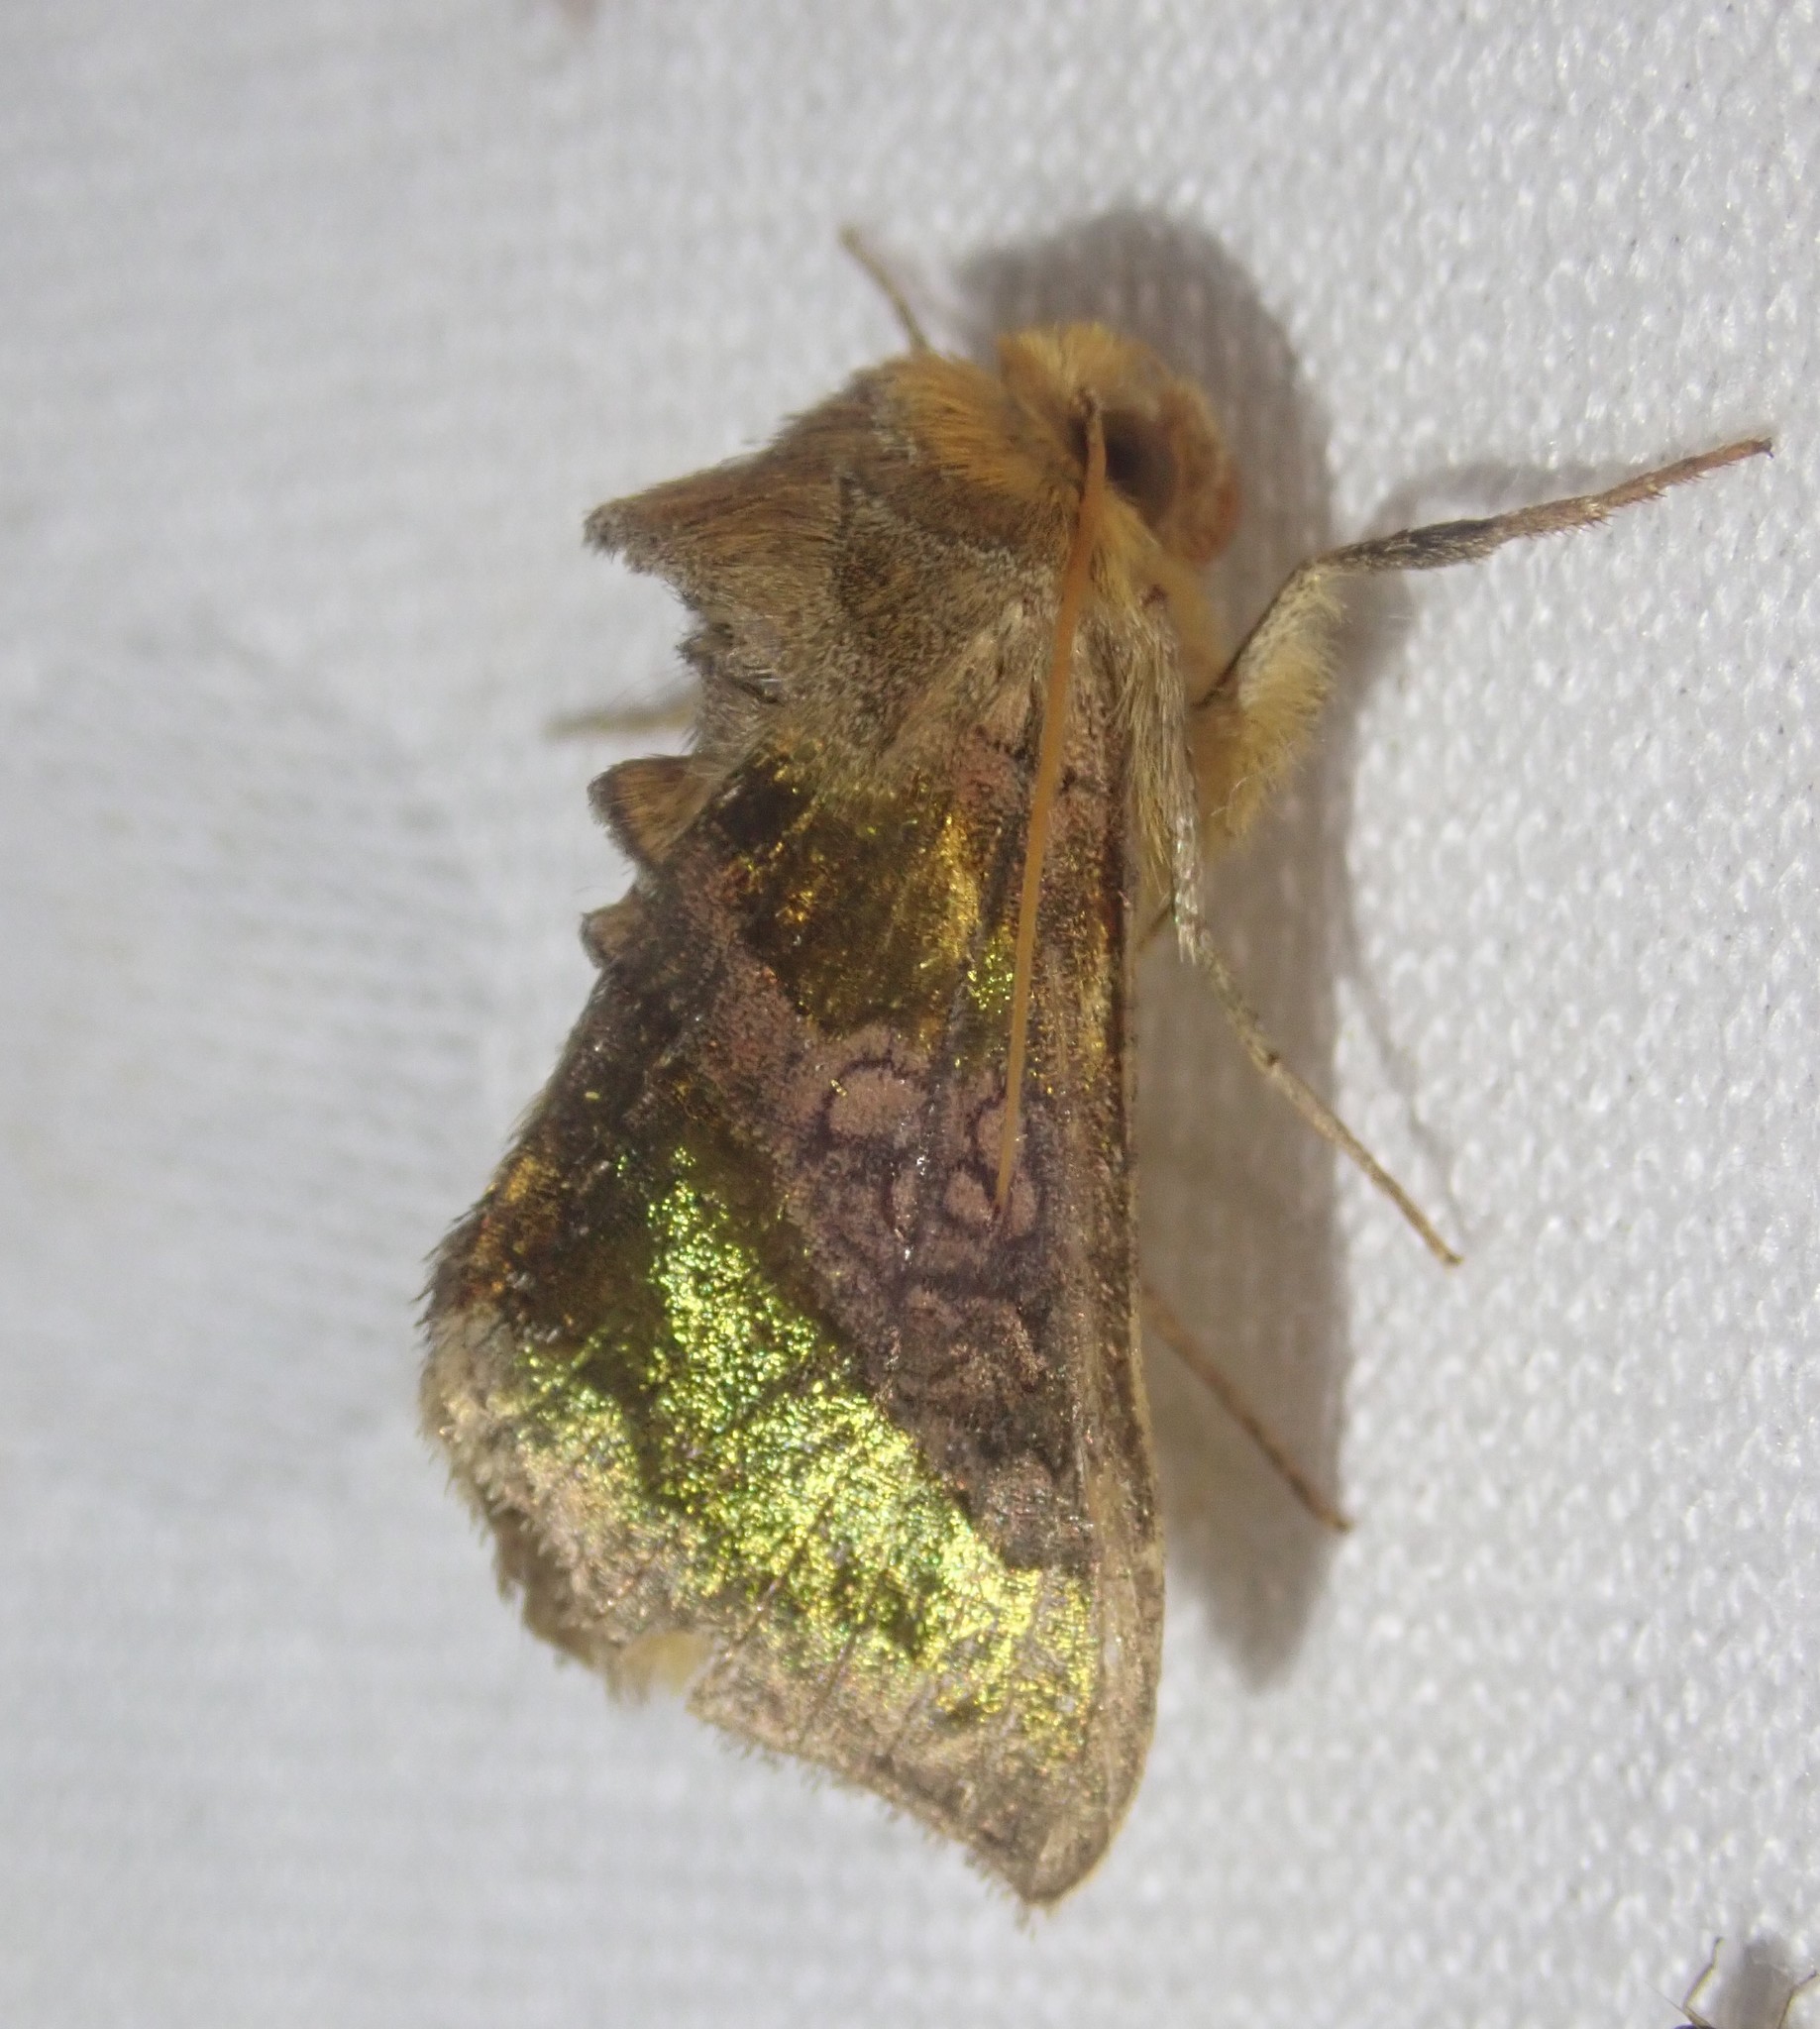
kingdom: Animalia
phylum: Arthropoda
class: Insecta
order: Lepidoptera
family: Noctuidae
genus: Diachrysia
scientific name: Diachrysia chrysitis
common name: Burnished brass
